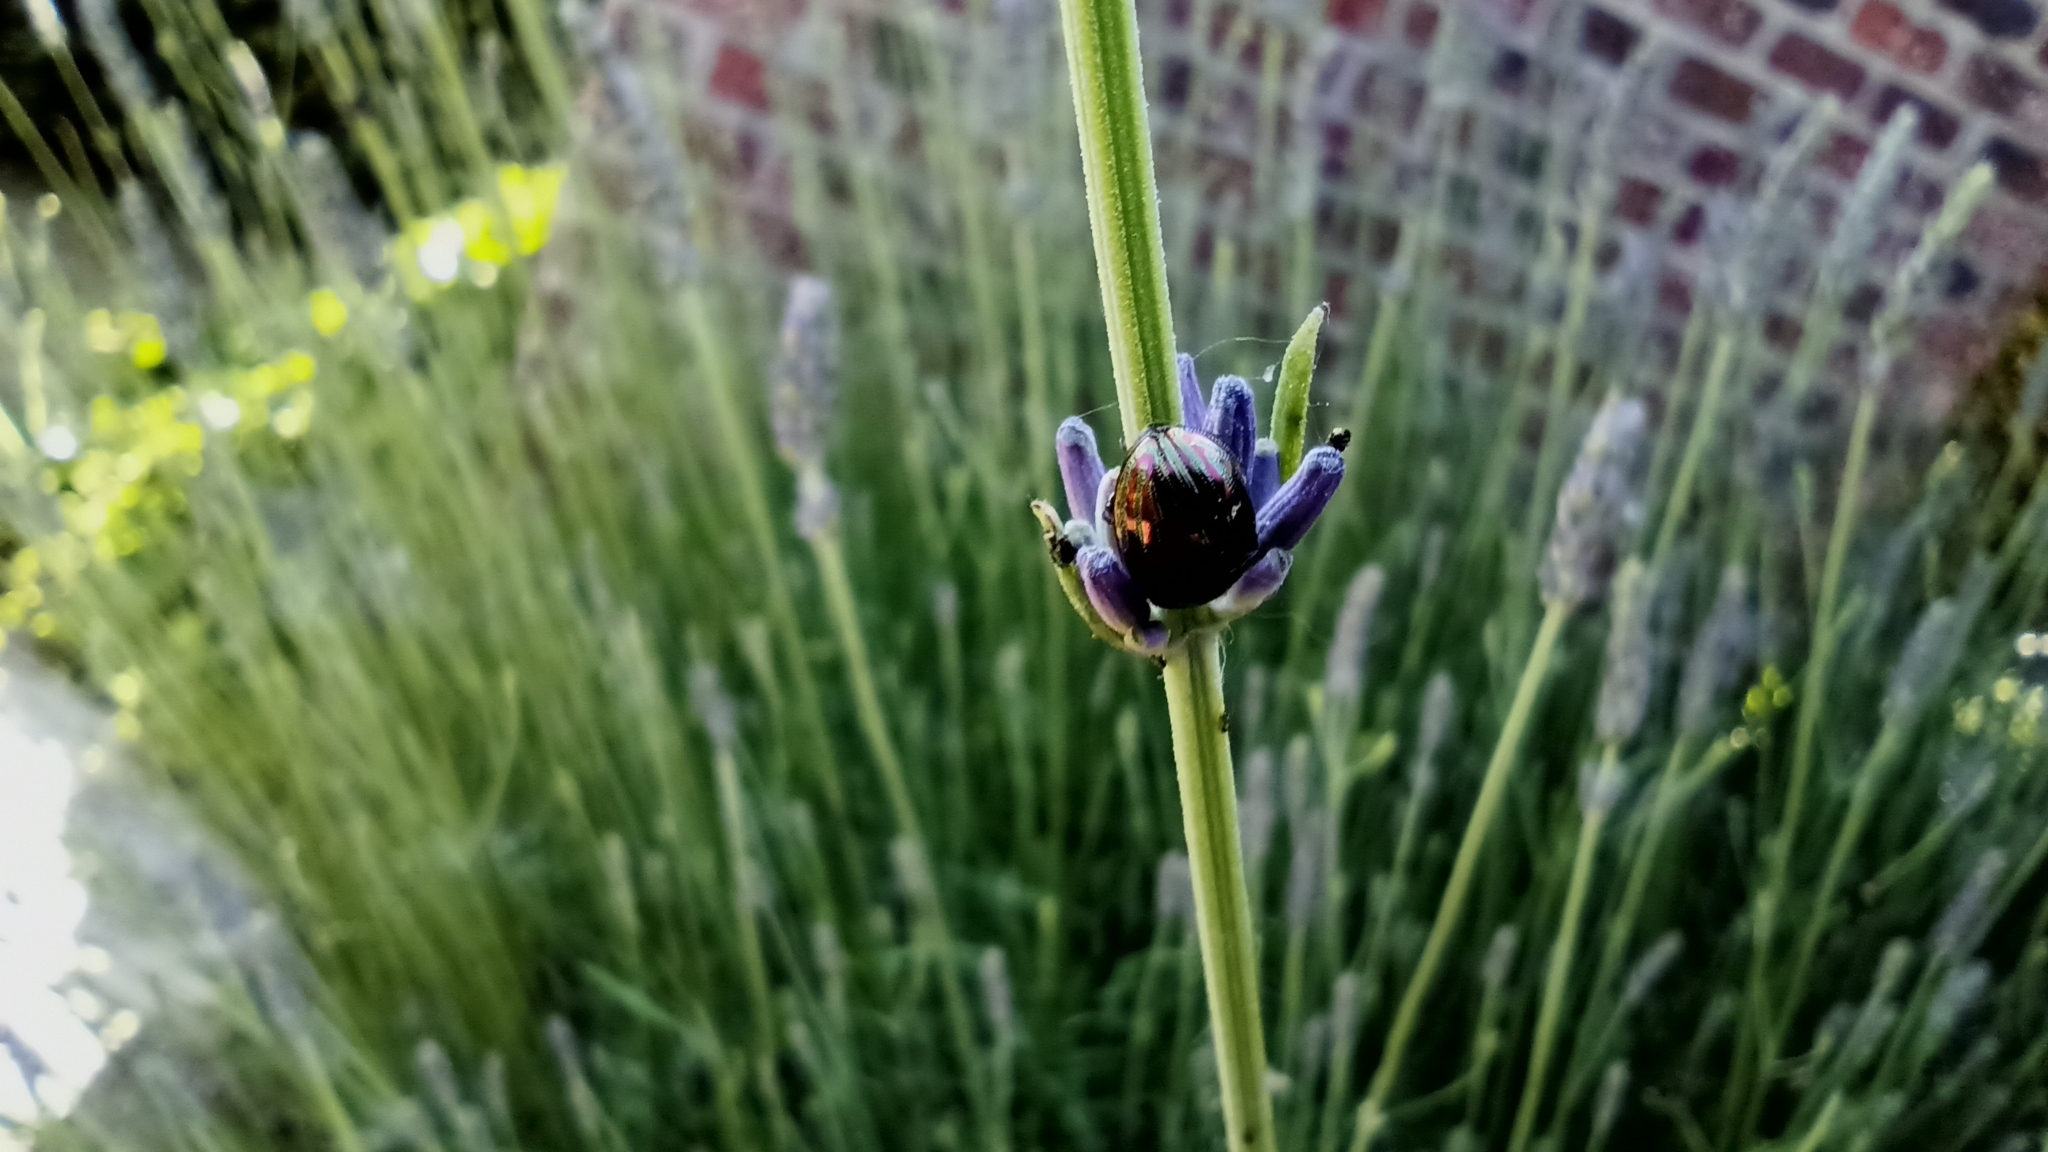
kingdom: Animalia
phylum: Arthropoda
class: Insecta
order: Coleoptera
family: Chrysomelidae
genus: Chrysolina
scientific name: Chrysolina americana
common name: Rosemary beetle
